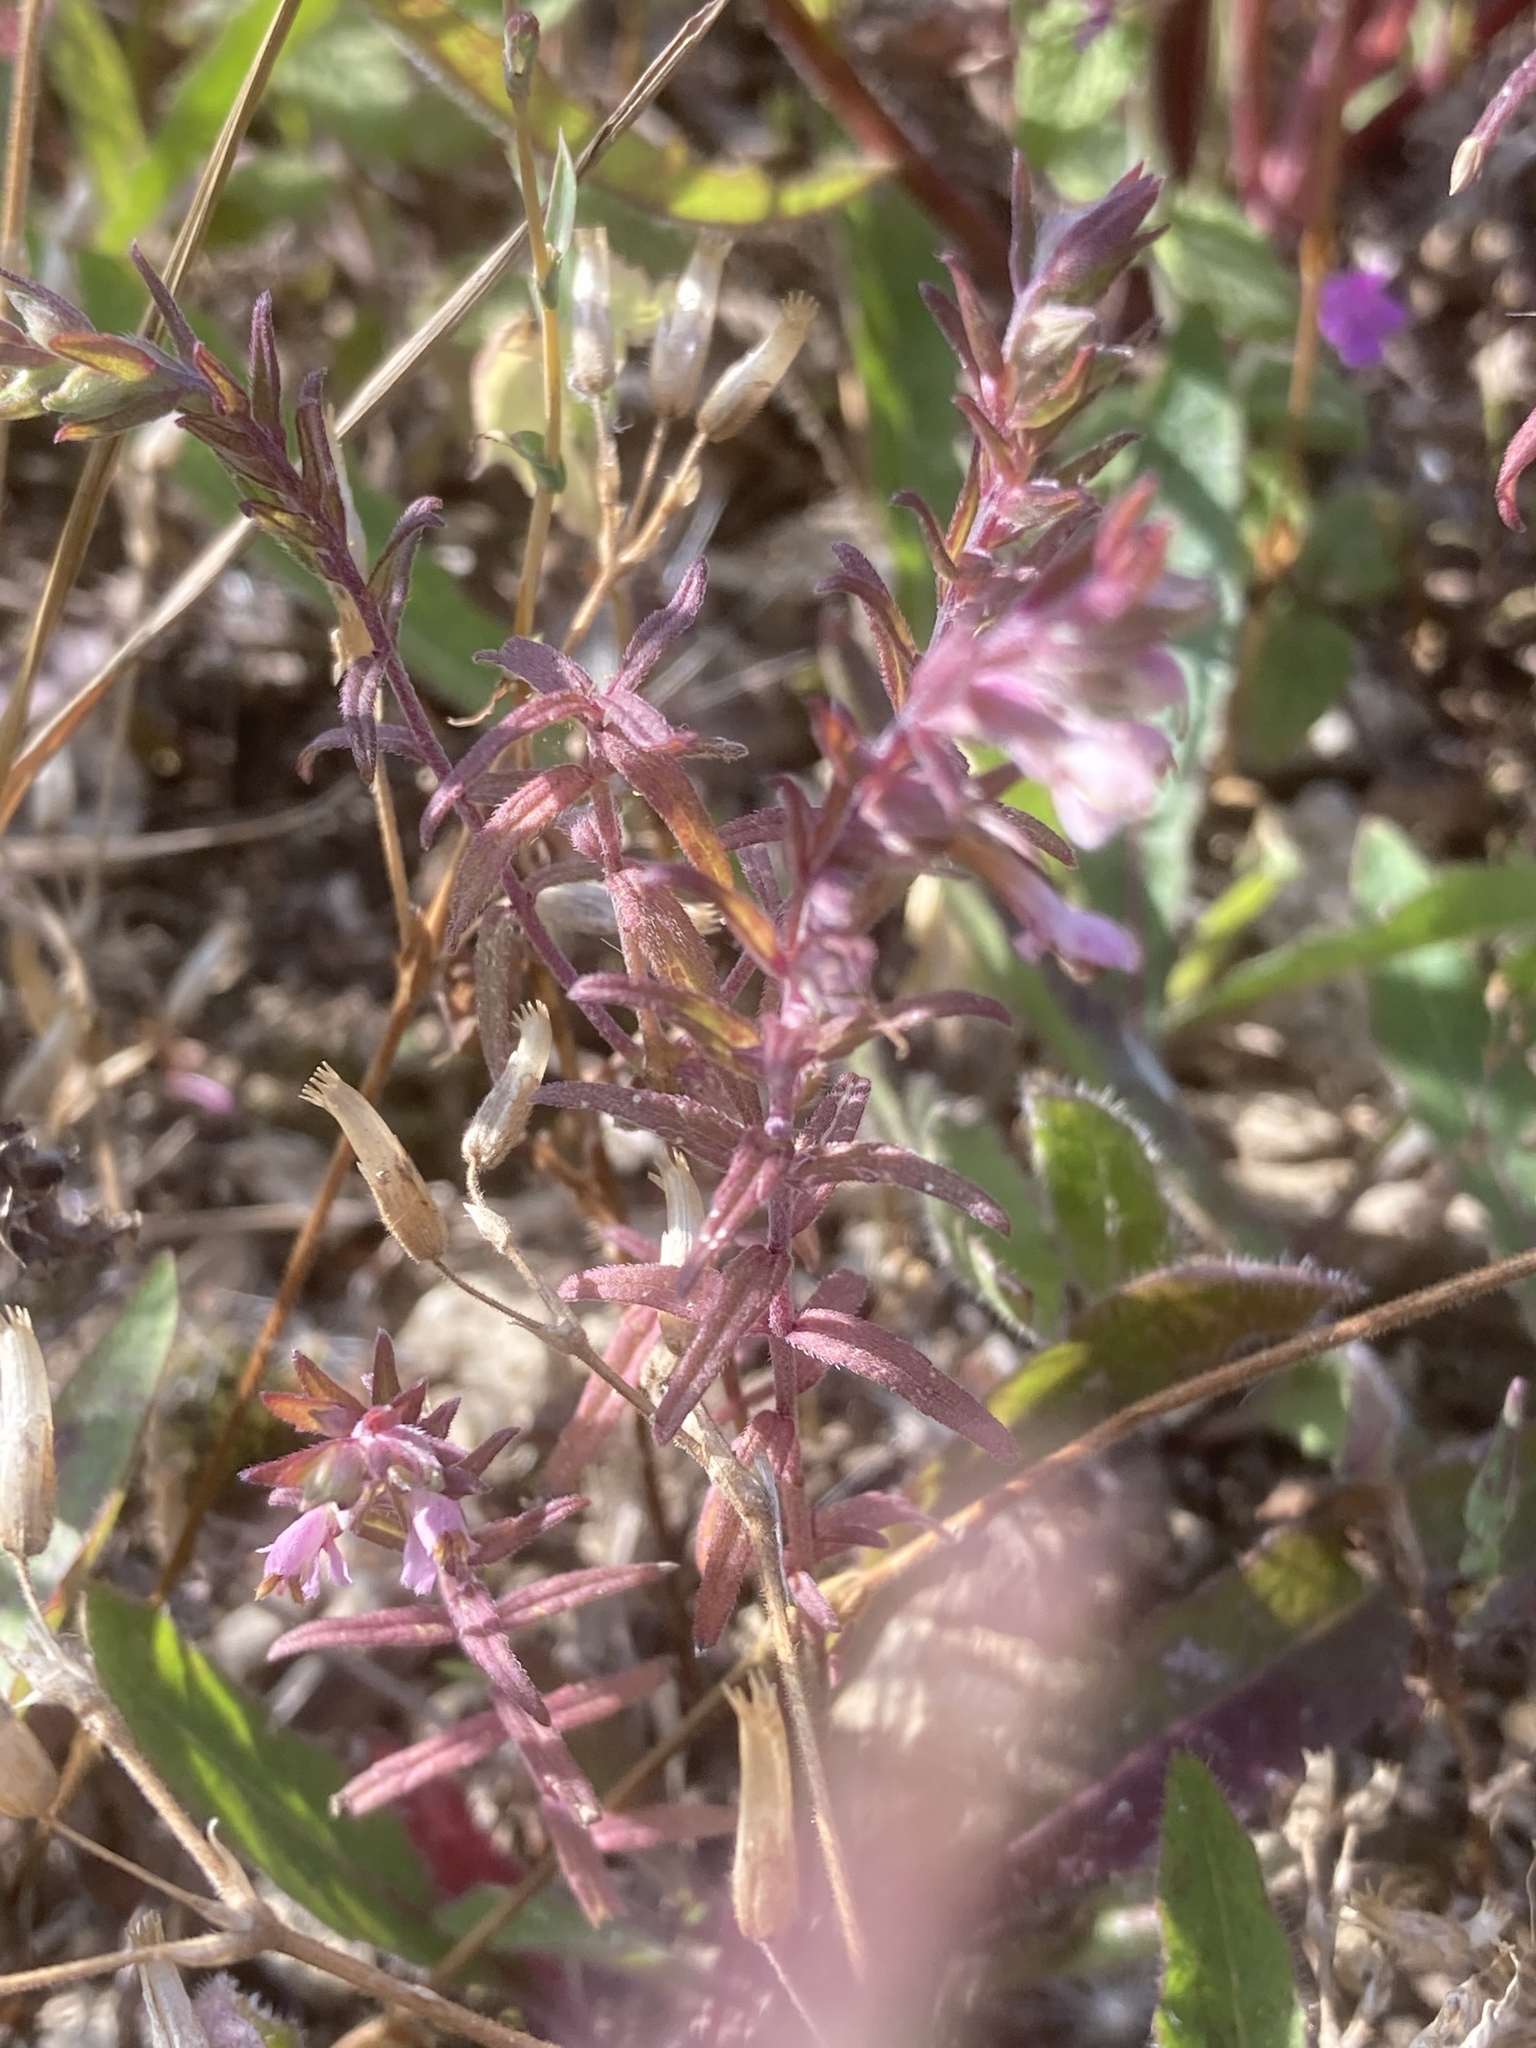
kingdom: Plantae
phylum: Tracheophyta
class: Magnoliopsida
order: Lamiales
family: Orobanchaceae
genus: Odontites
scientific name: Odontites vulgaris
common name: Broomrape
